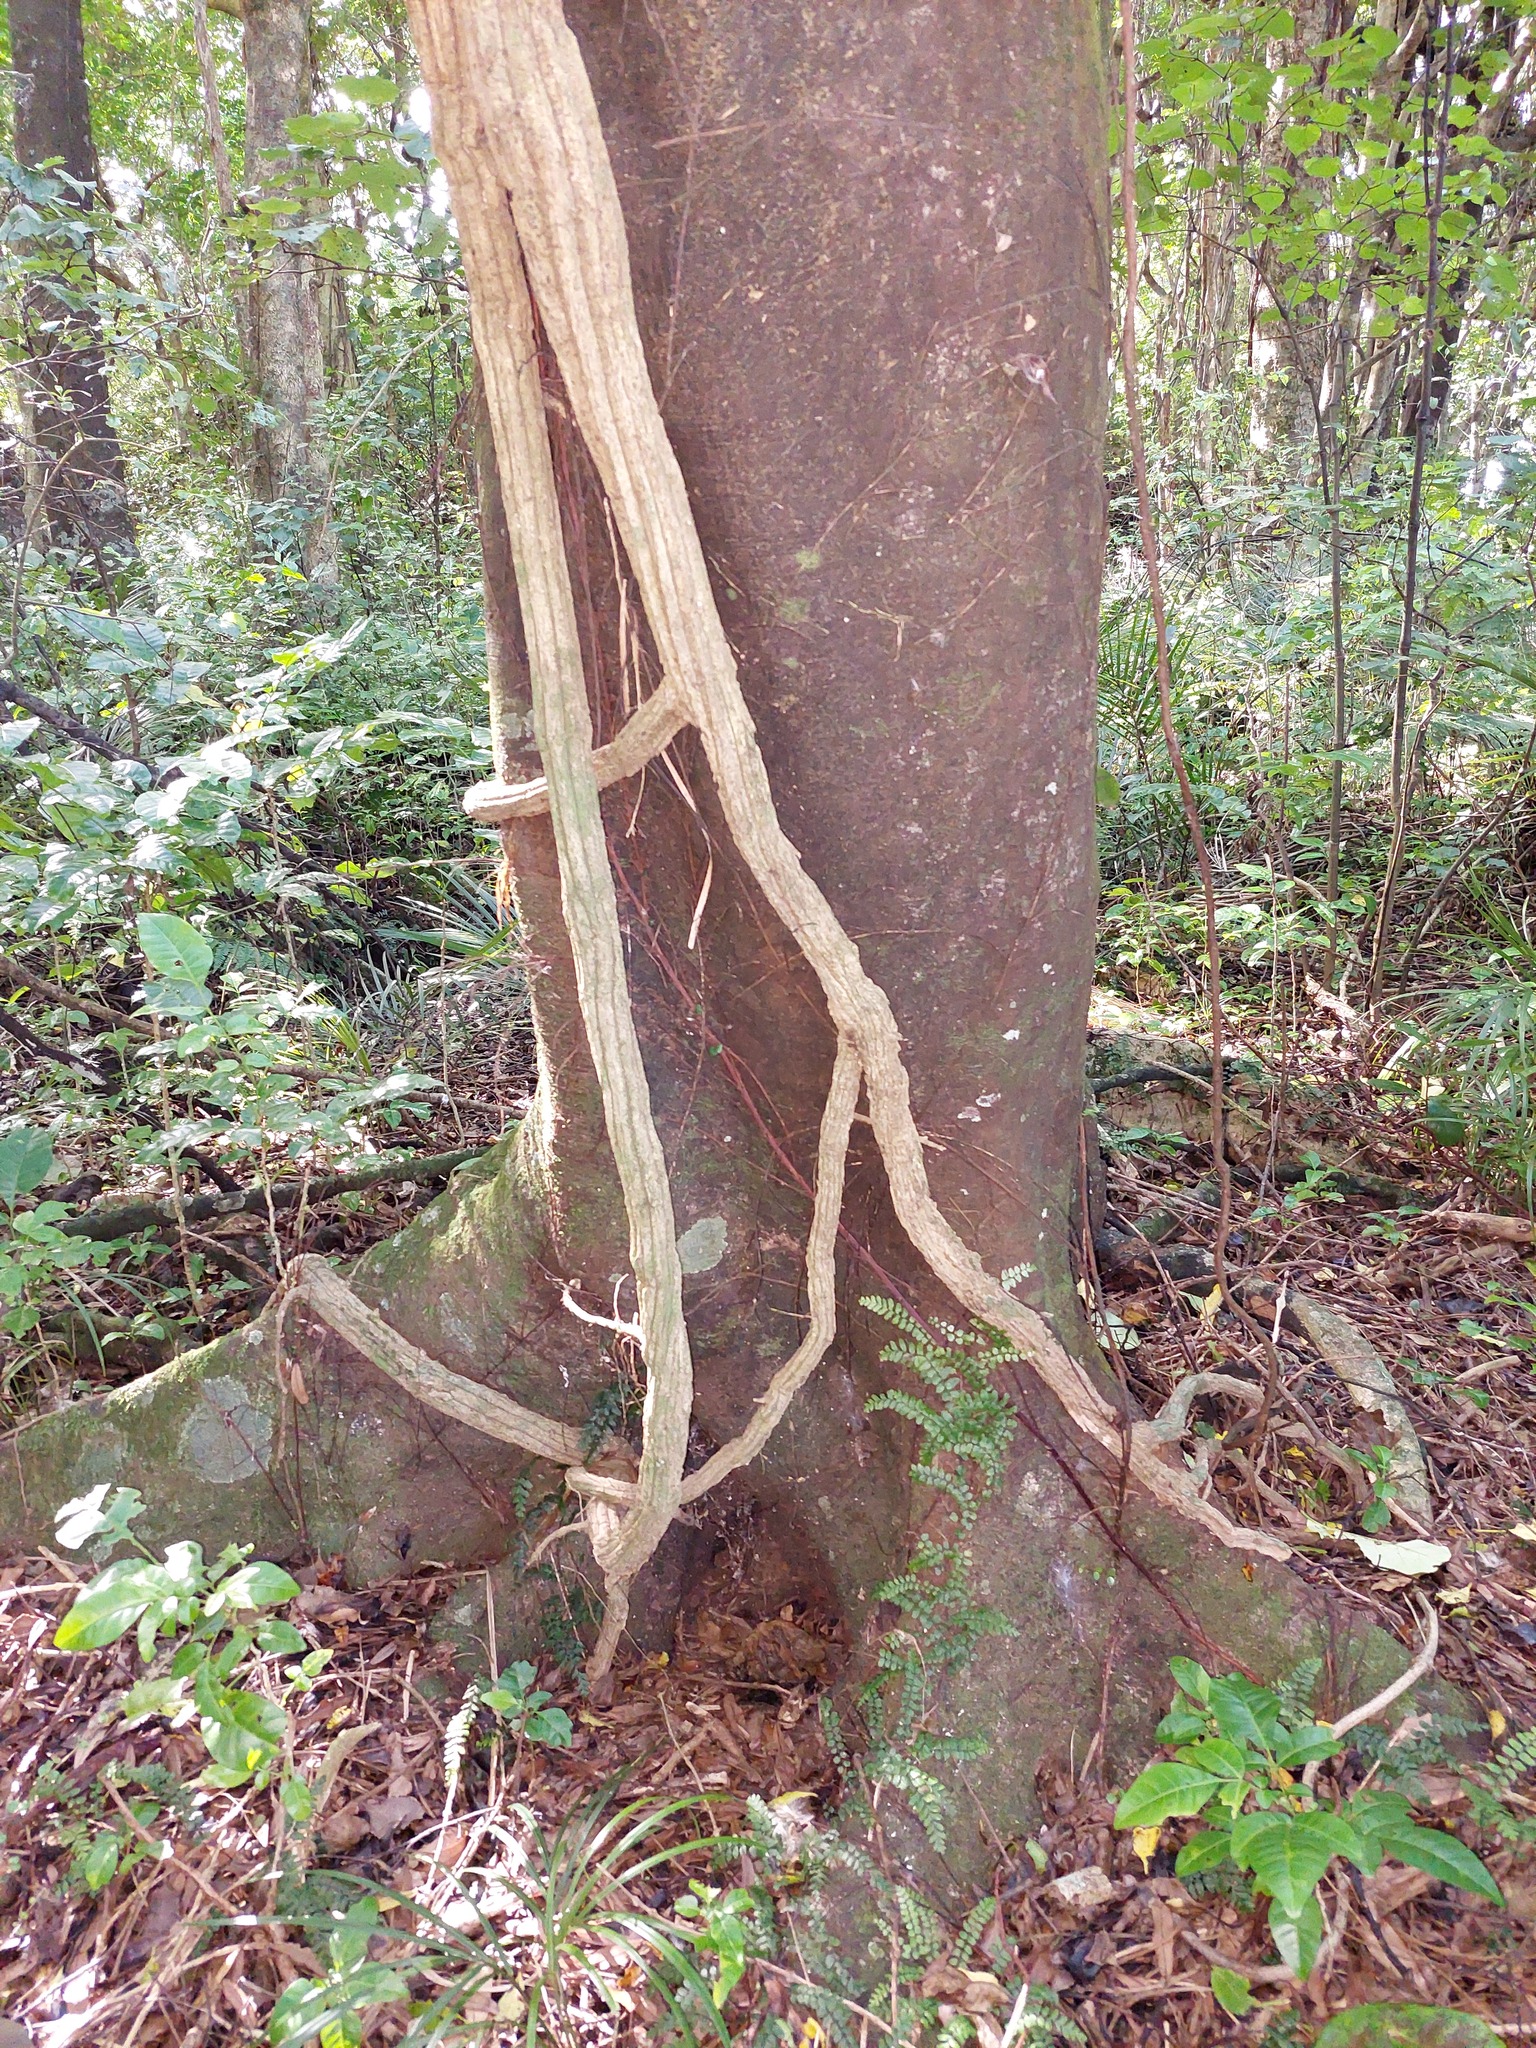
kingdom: Plantae
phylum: Tracheophyta
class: Magnoliopsida
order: Apiales
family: Griseliniaceae
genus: Griselinia
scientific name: Griselinia lucida
